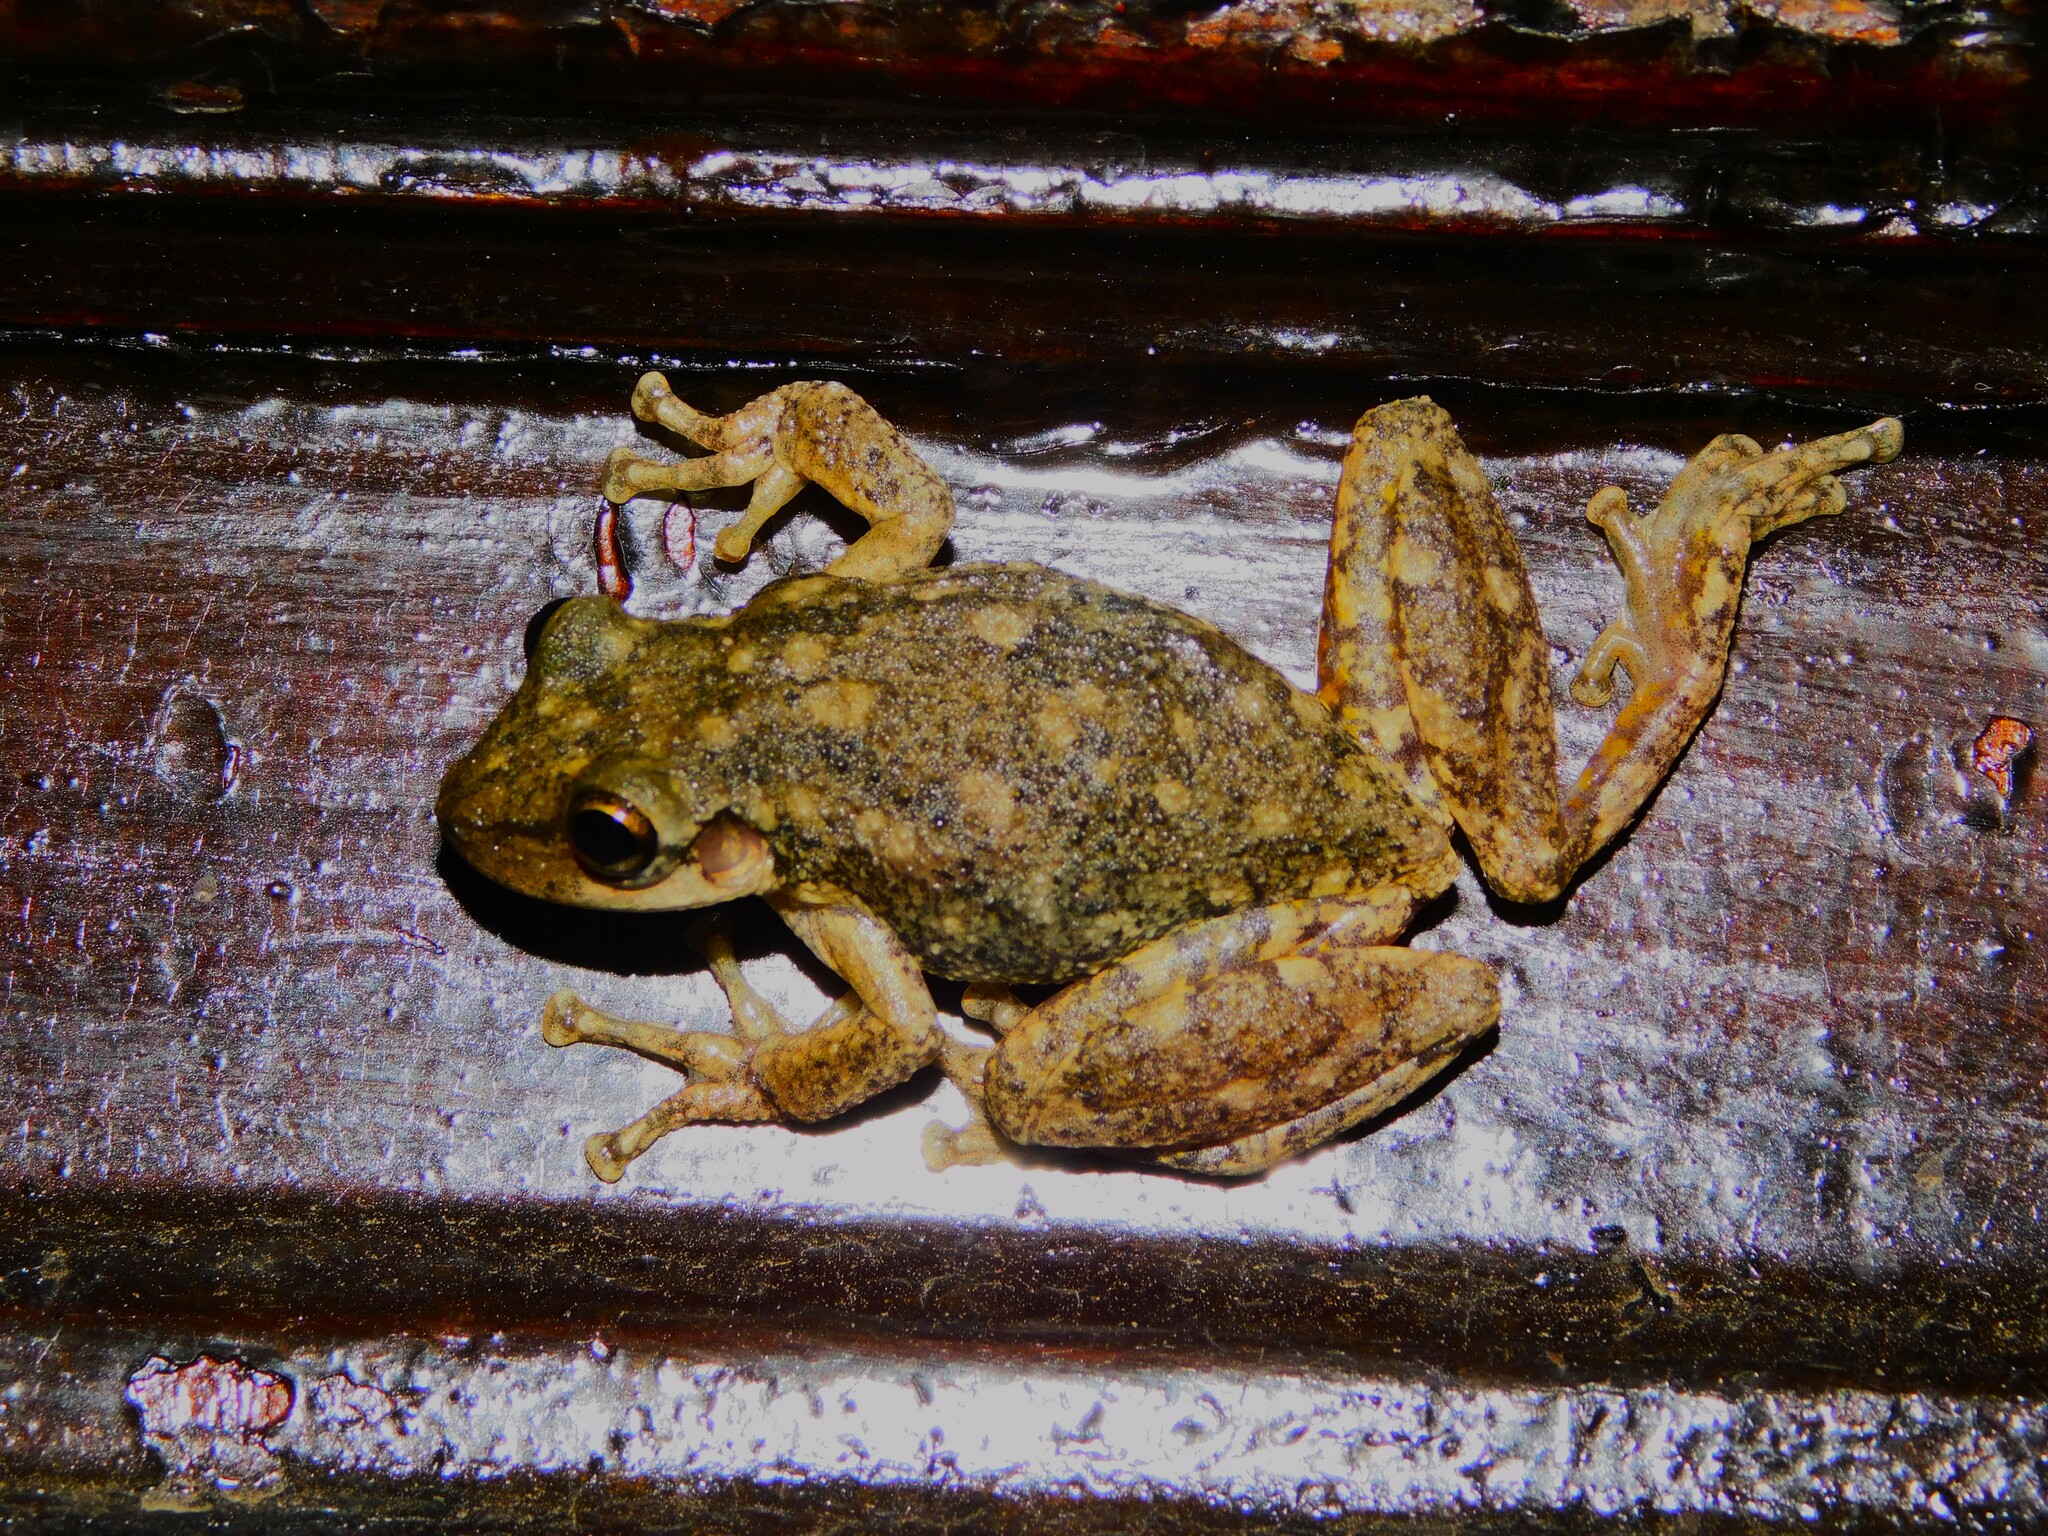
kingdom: Animalia
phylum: Chordata
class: Amphibia
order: Anura
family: Hylidae
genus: Scinax
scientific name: Scinax nasicus
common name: Lesser snouted treefrog
